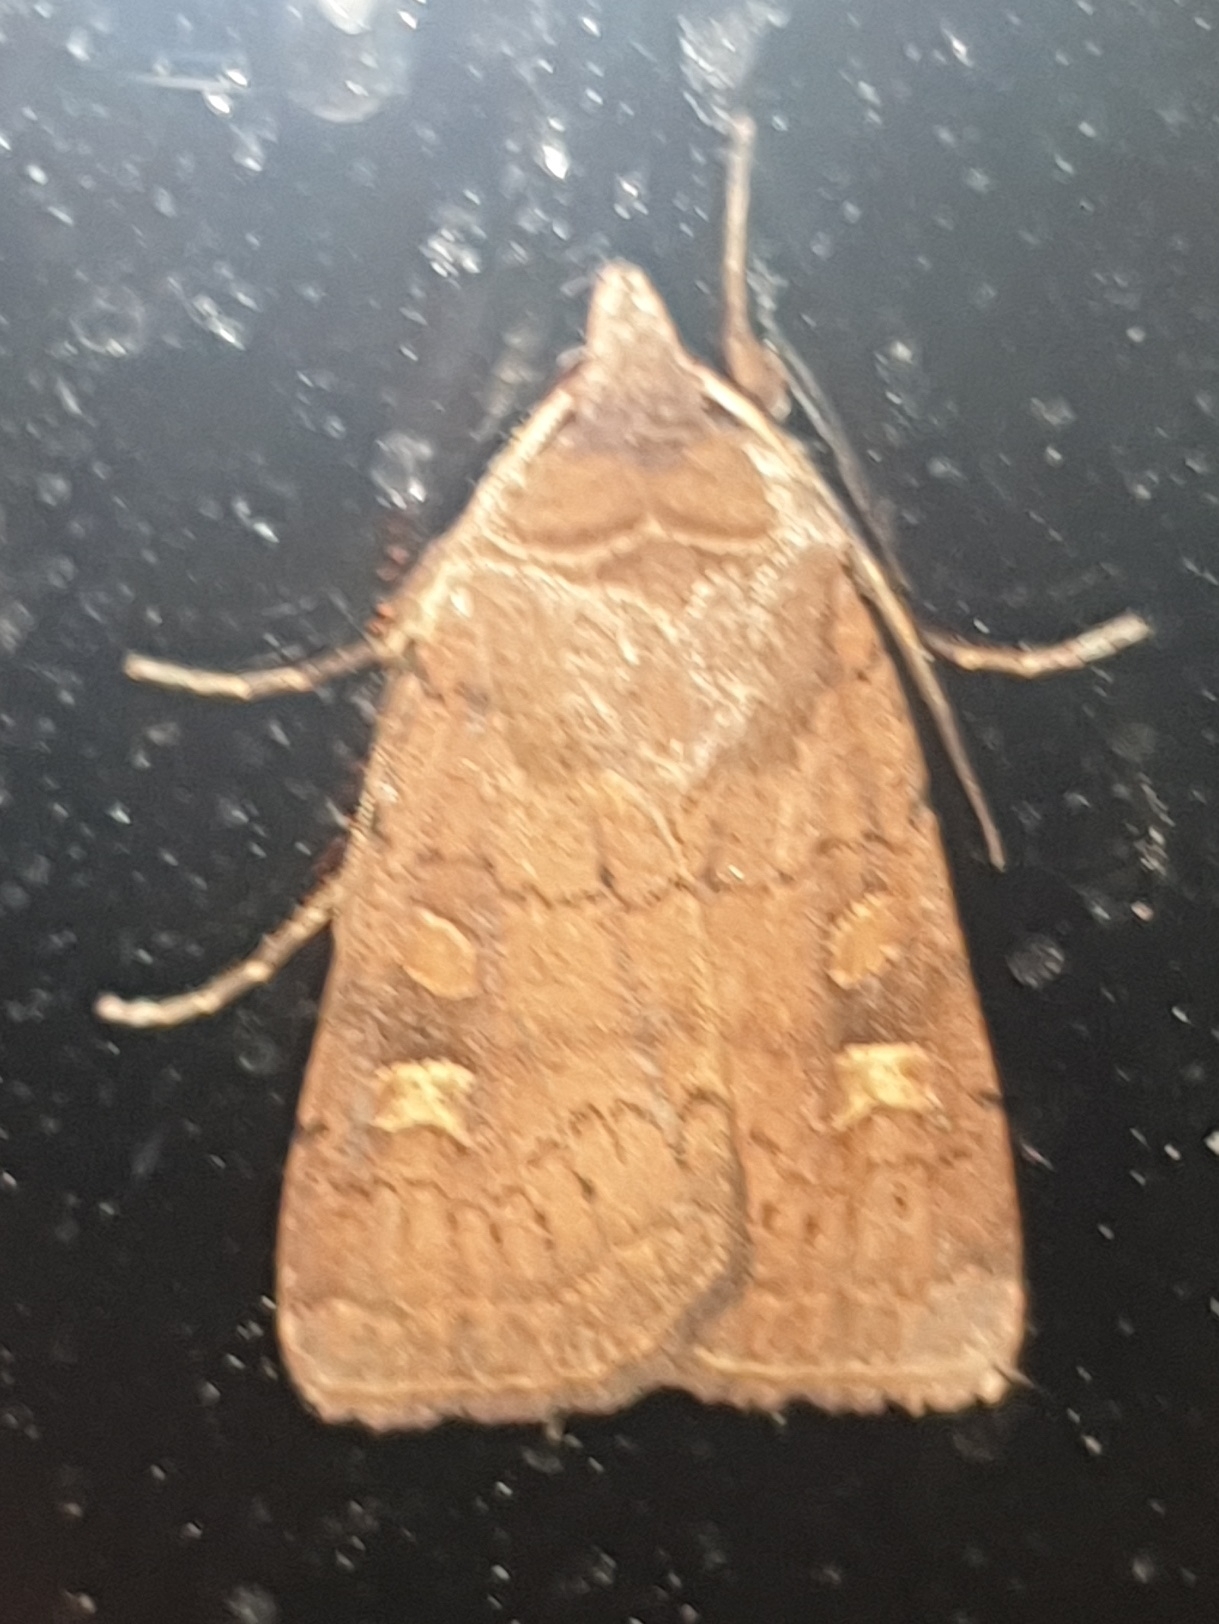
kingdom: Animalia
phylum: Arthropoda
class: Insecta
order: Lepidoptera
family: Noctuidae
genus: Xestia
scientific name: Xestia xanthographa
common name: Square-spot rustic
